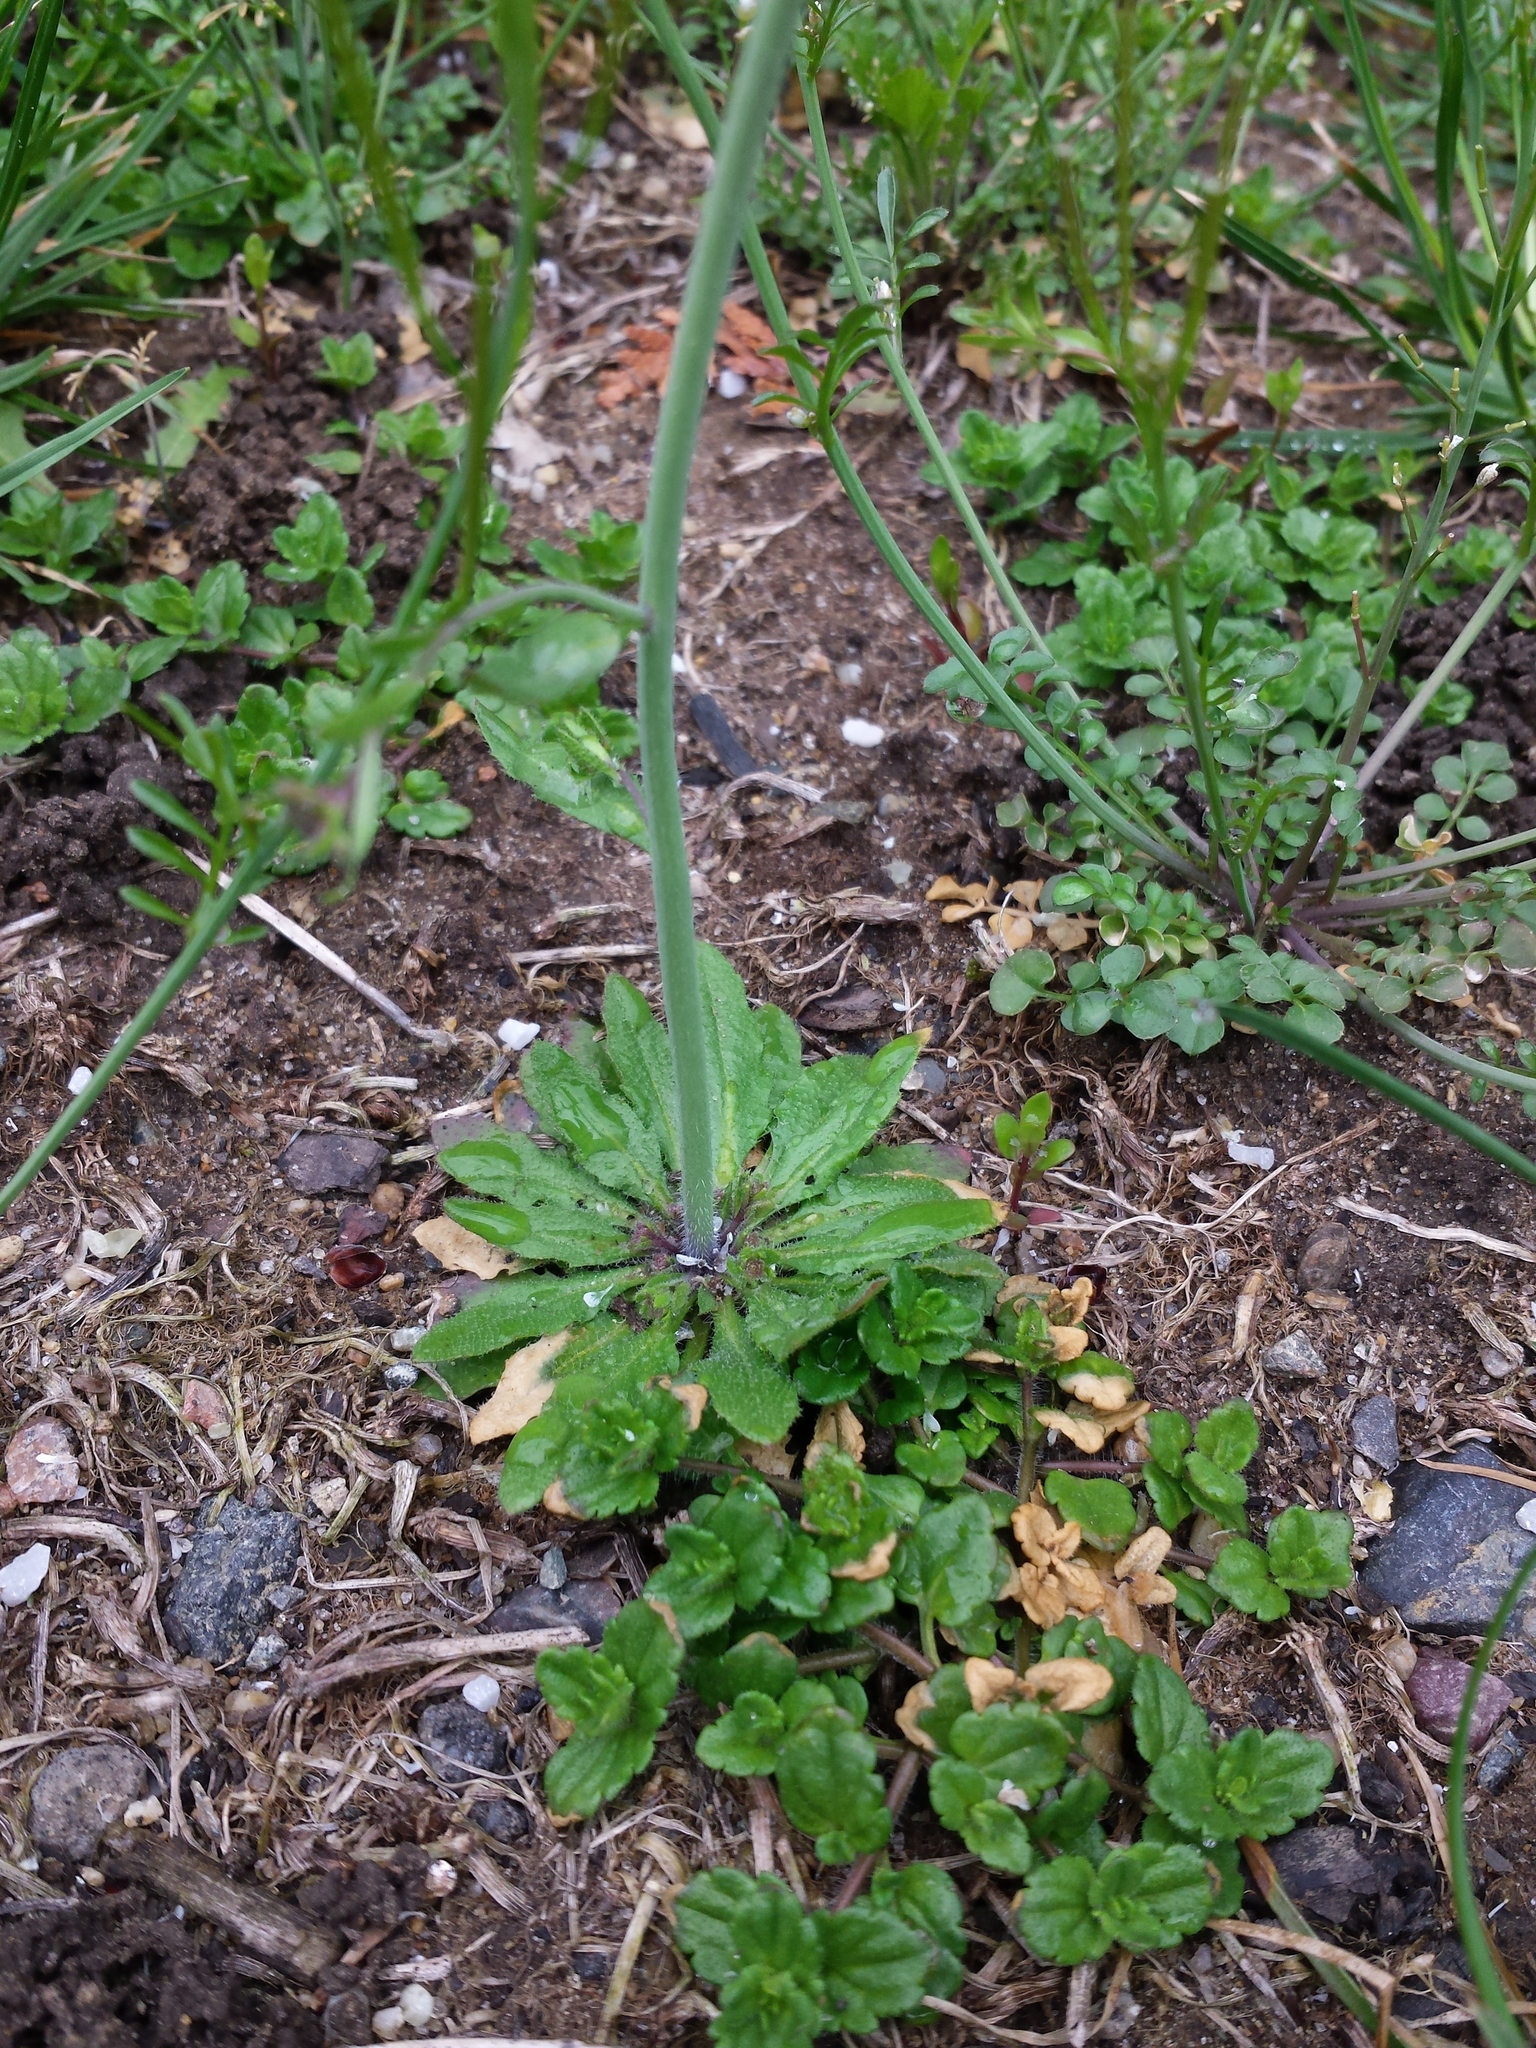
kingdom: Plantae
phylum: Tracheophyta
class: Magnoliopsida
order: Brassicales
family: Brassicaceae
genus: Arabidopsis
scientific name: Arabidopsis thaliana
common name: Thale cress
